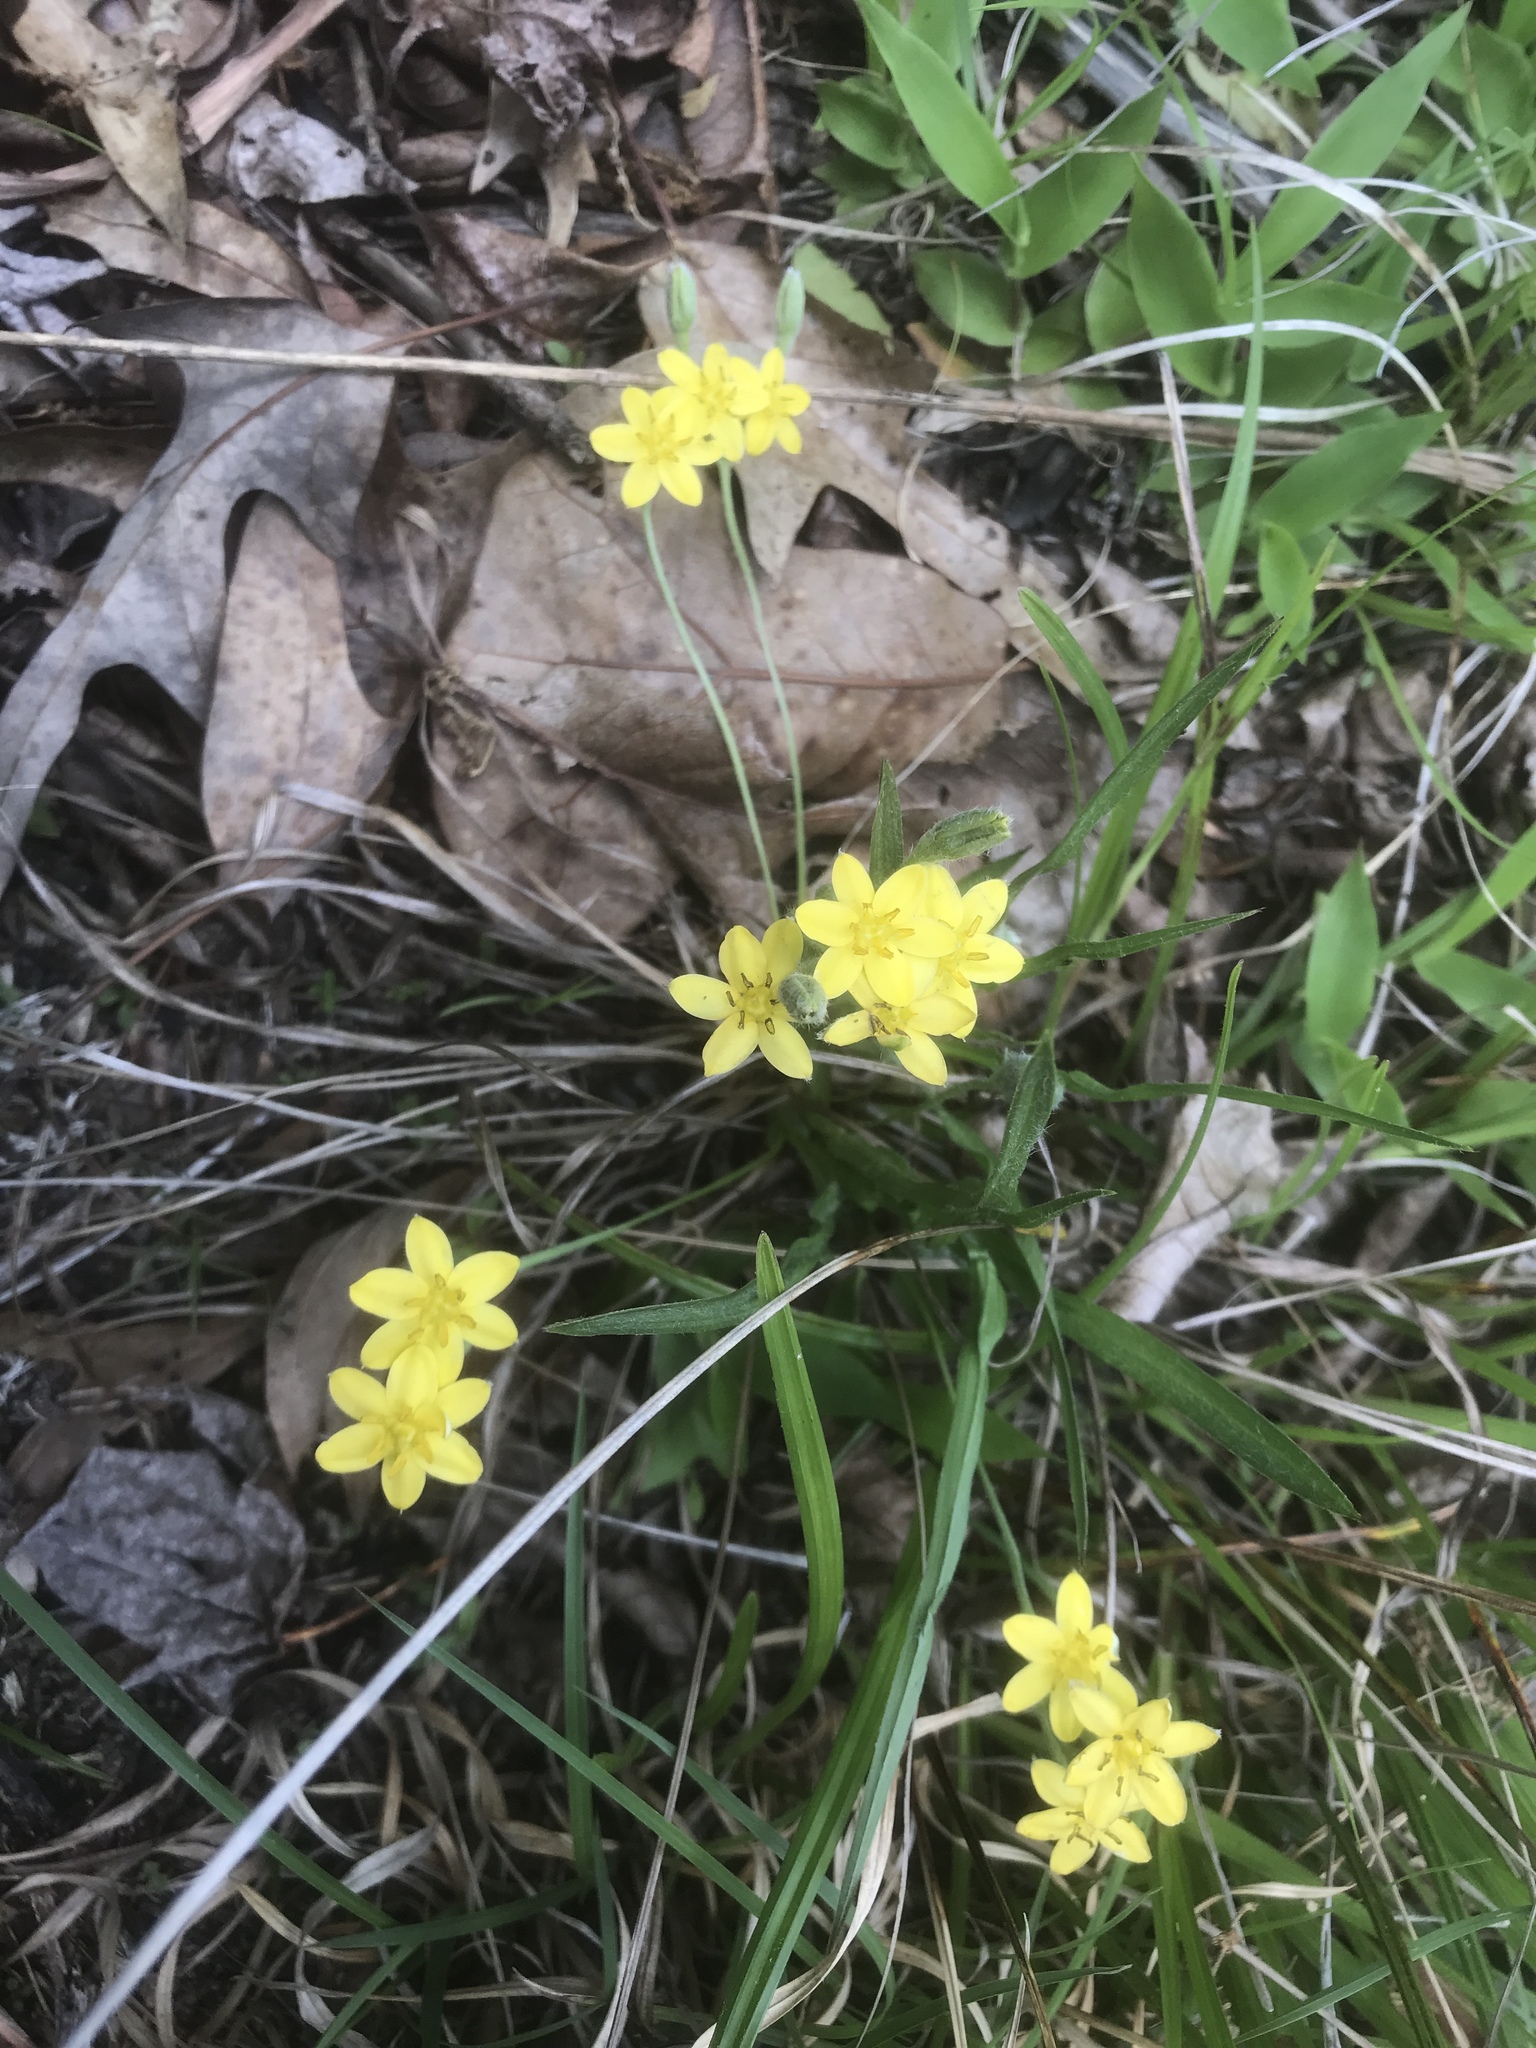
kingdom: Plantae
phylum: Tracheophyta
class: Liliopsida
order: Asparagales
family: Hypoxidaceae
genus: Hypoxis
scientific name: Hypoxis hirsuta
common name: Common goldstar
